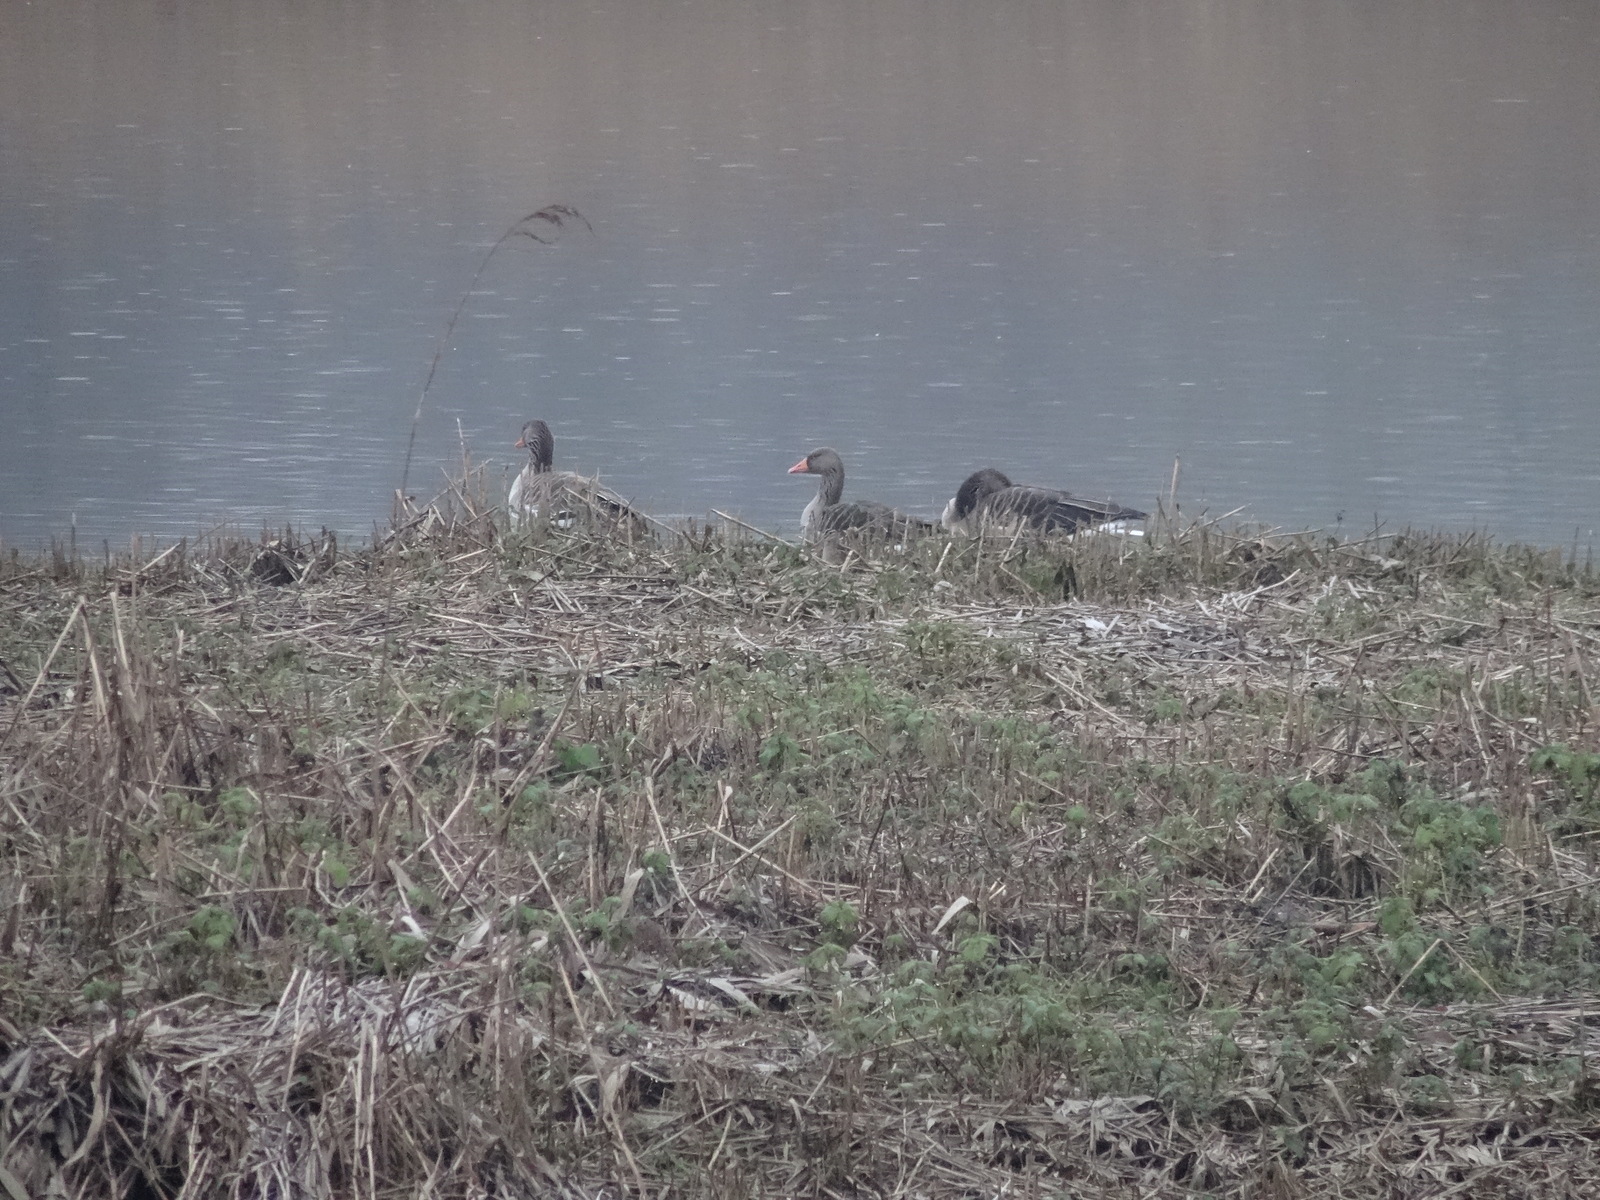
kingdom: Animalia
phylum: Chordata
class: Aves
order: Anseriformes
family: Anatidae
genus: Anser
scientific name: Anser anser
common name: Greylag goose
